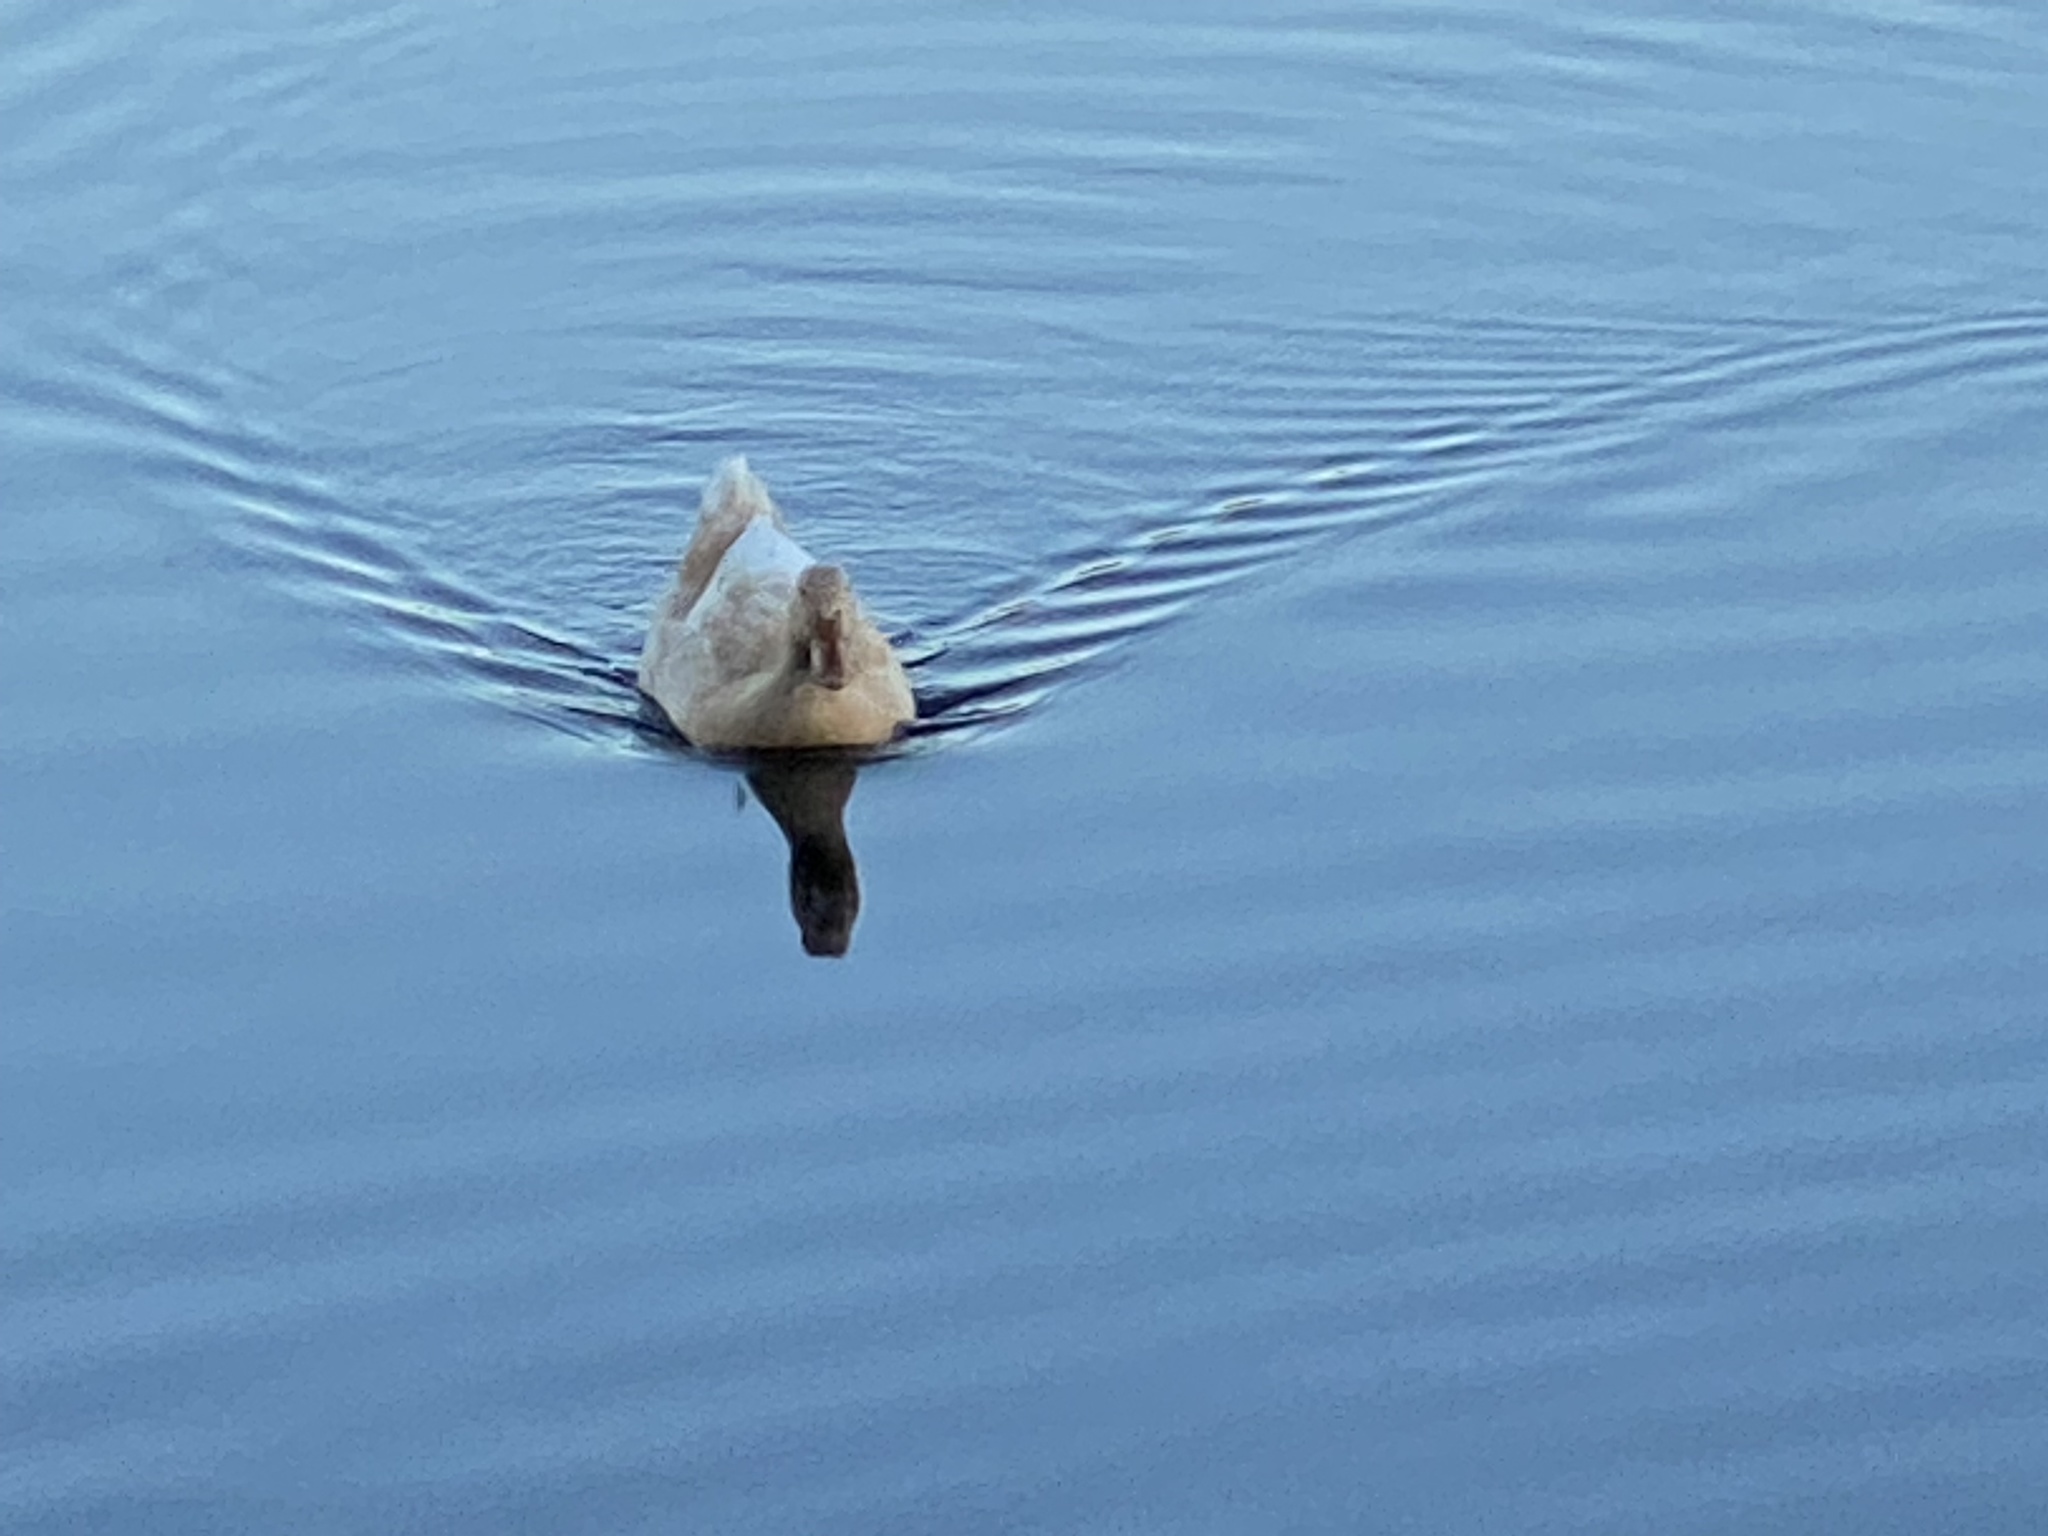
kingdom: Animalia
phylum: Chordata
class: Aves
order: Anseriformes
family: Anatidae
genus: Anas
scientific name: Anas platyrhynchos
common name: Mallard
